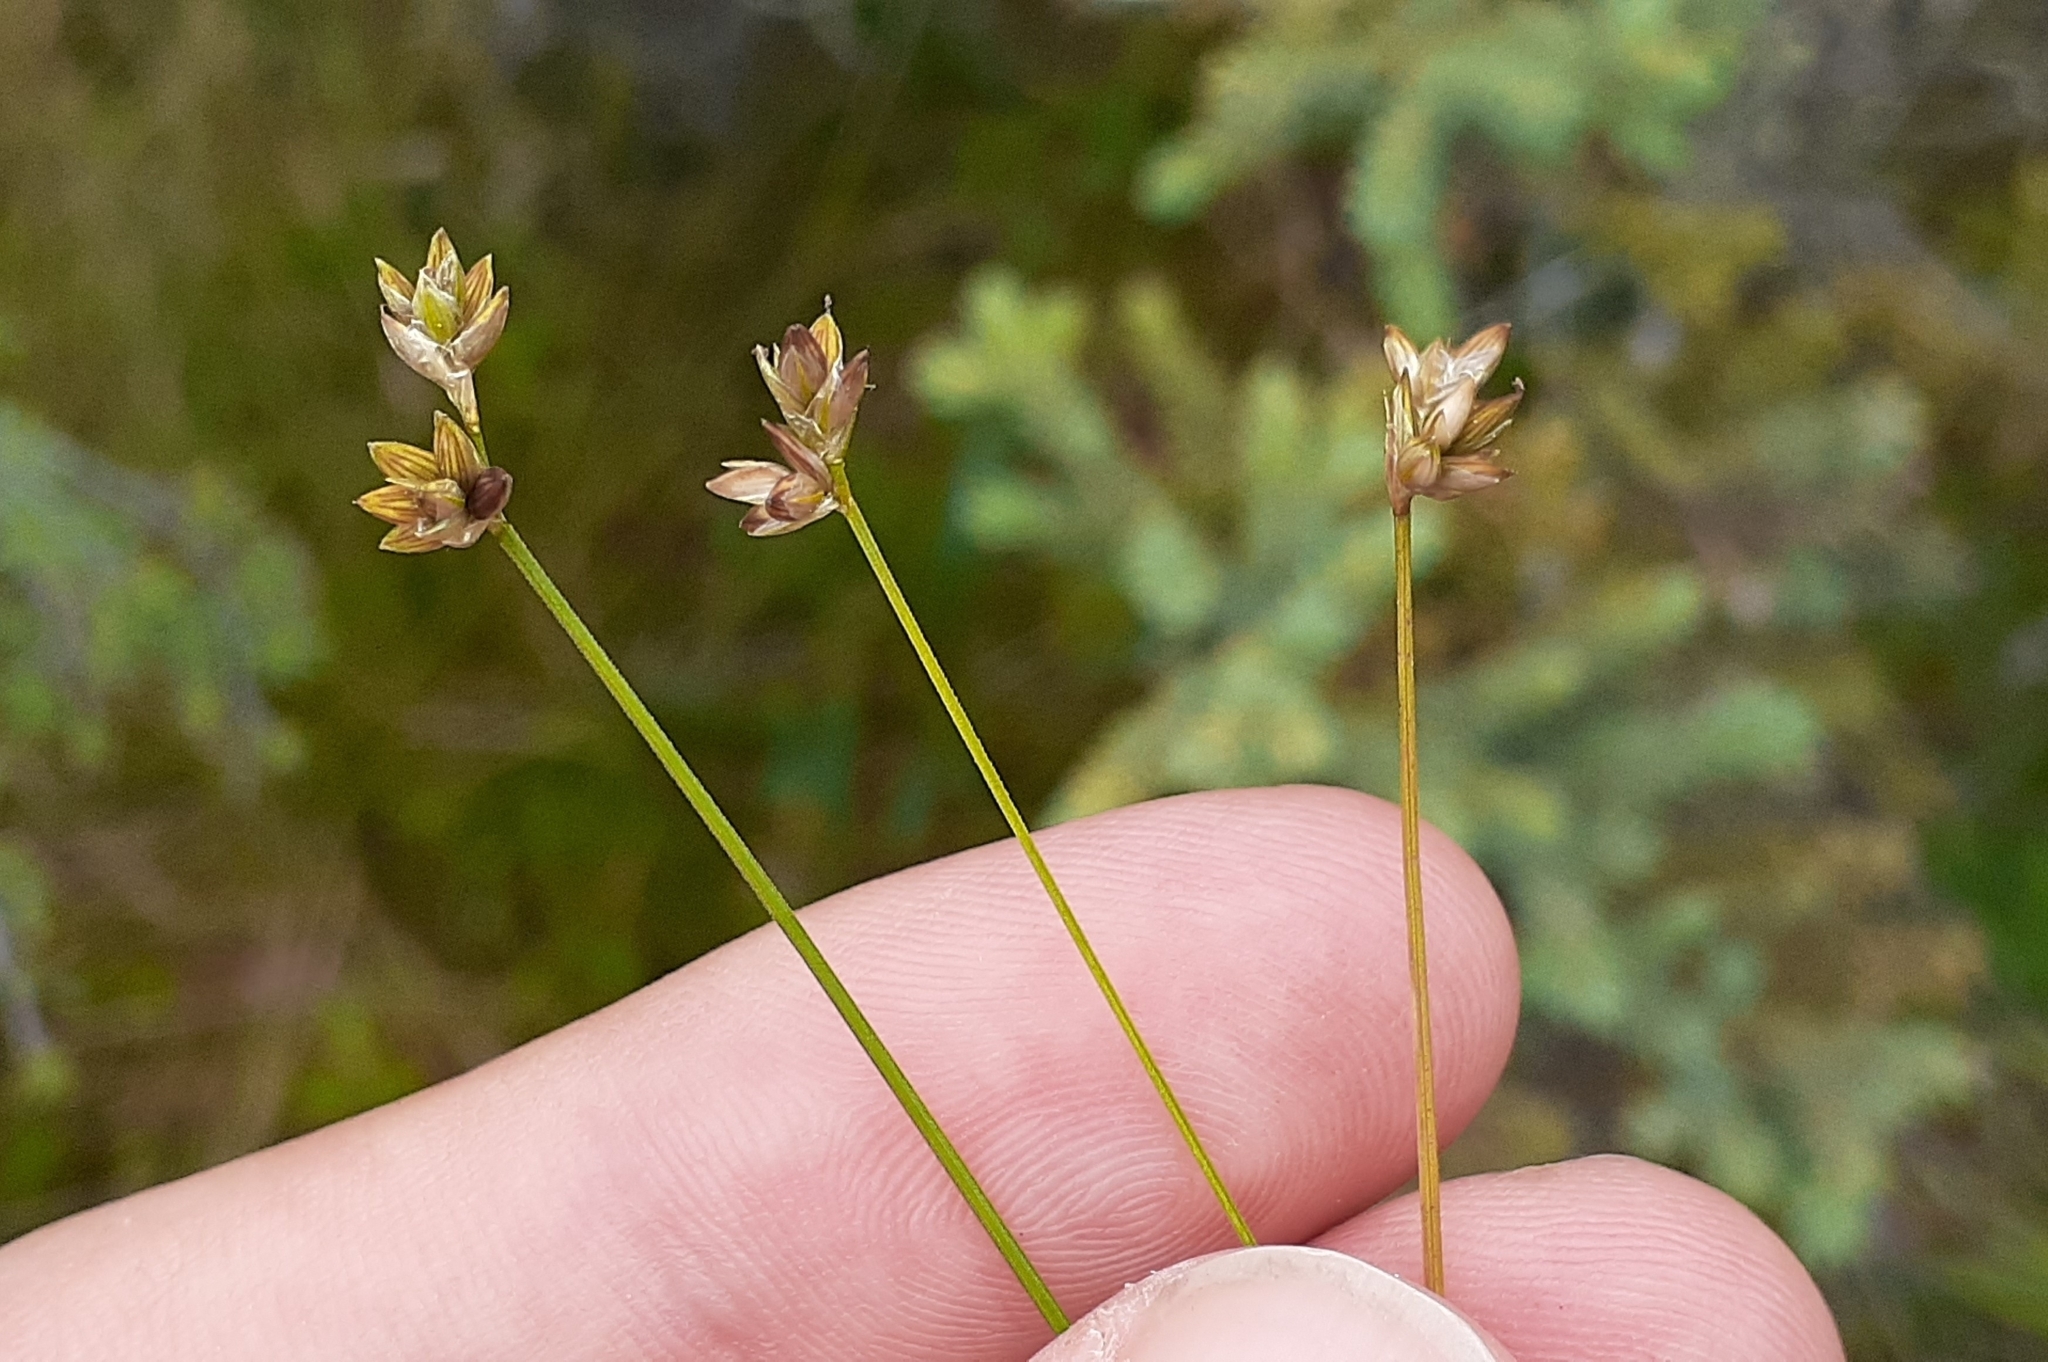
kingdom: Plantae
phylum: Tracheophyta
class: Liliopsida
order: Poales
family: Cyperaceae
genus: Carex
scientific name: Carex tenuiflora
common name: Sparse-flowered sedge
